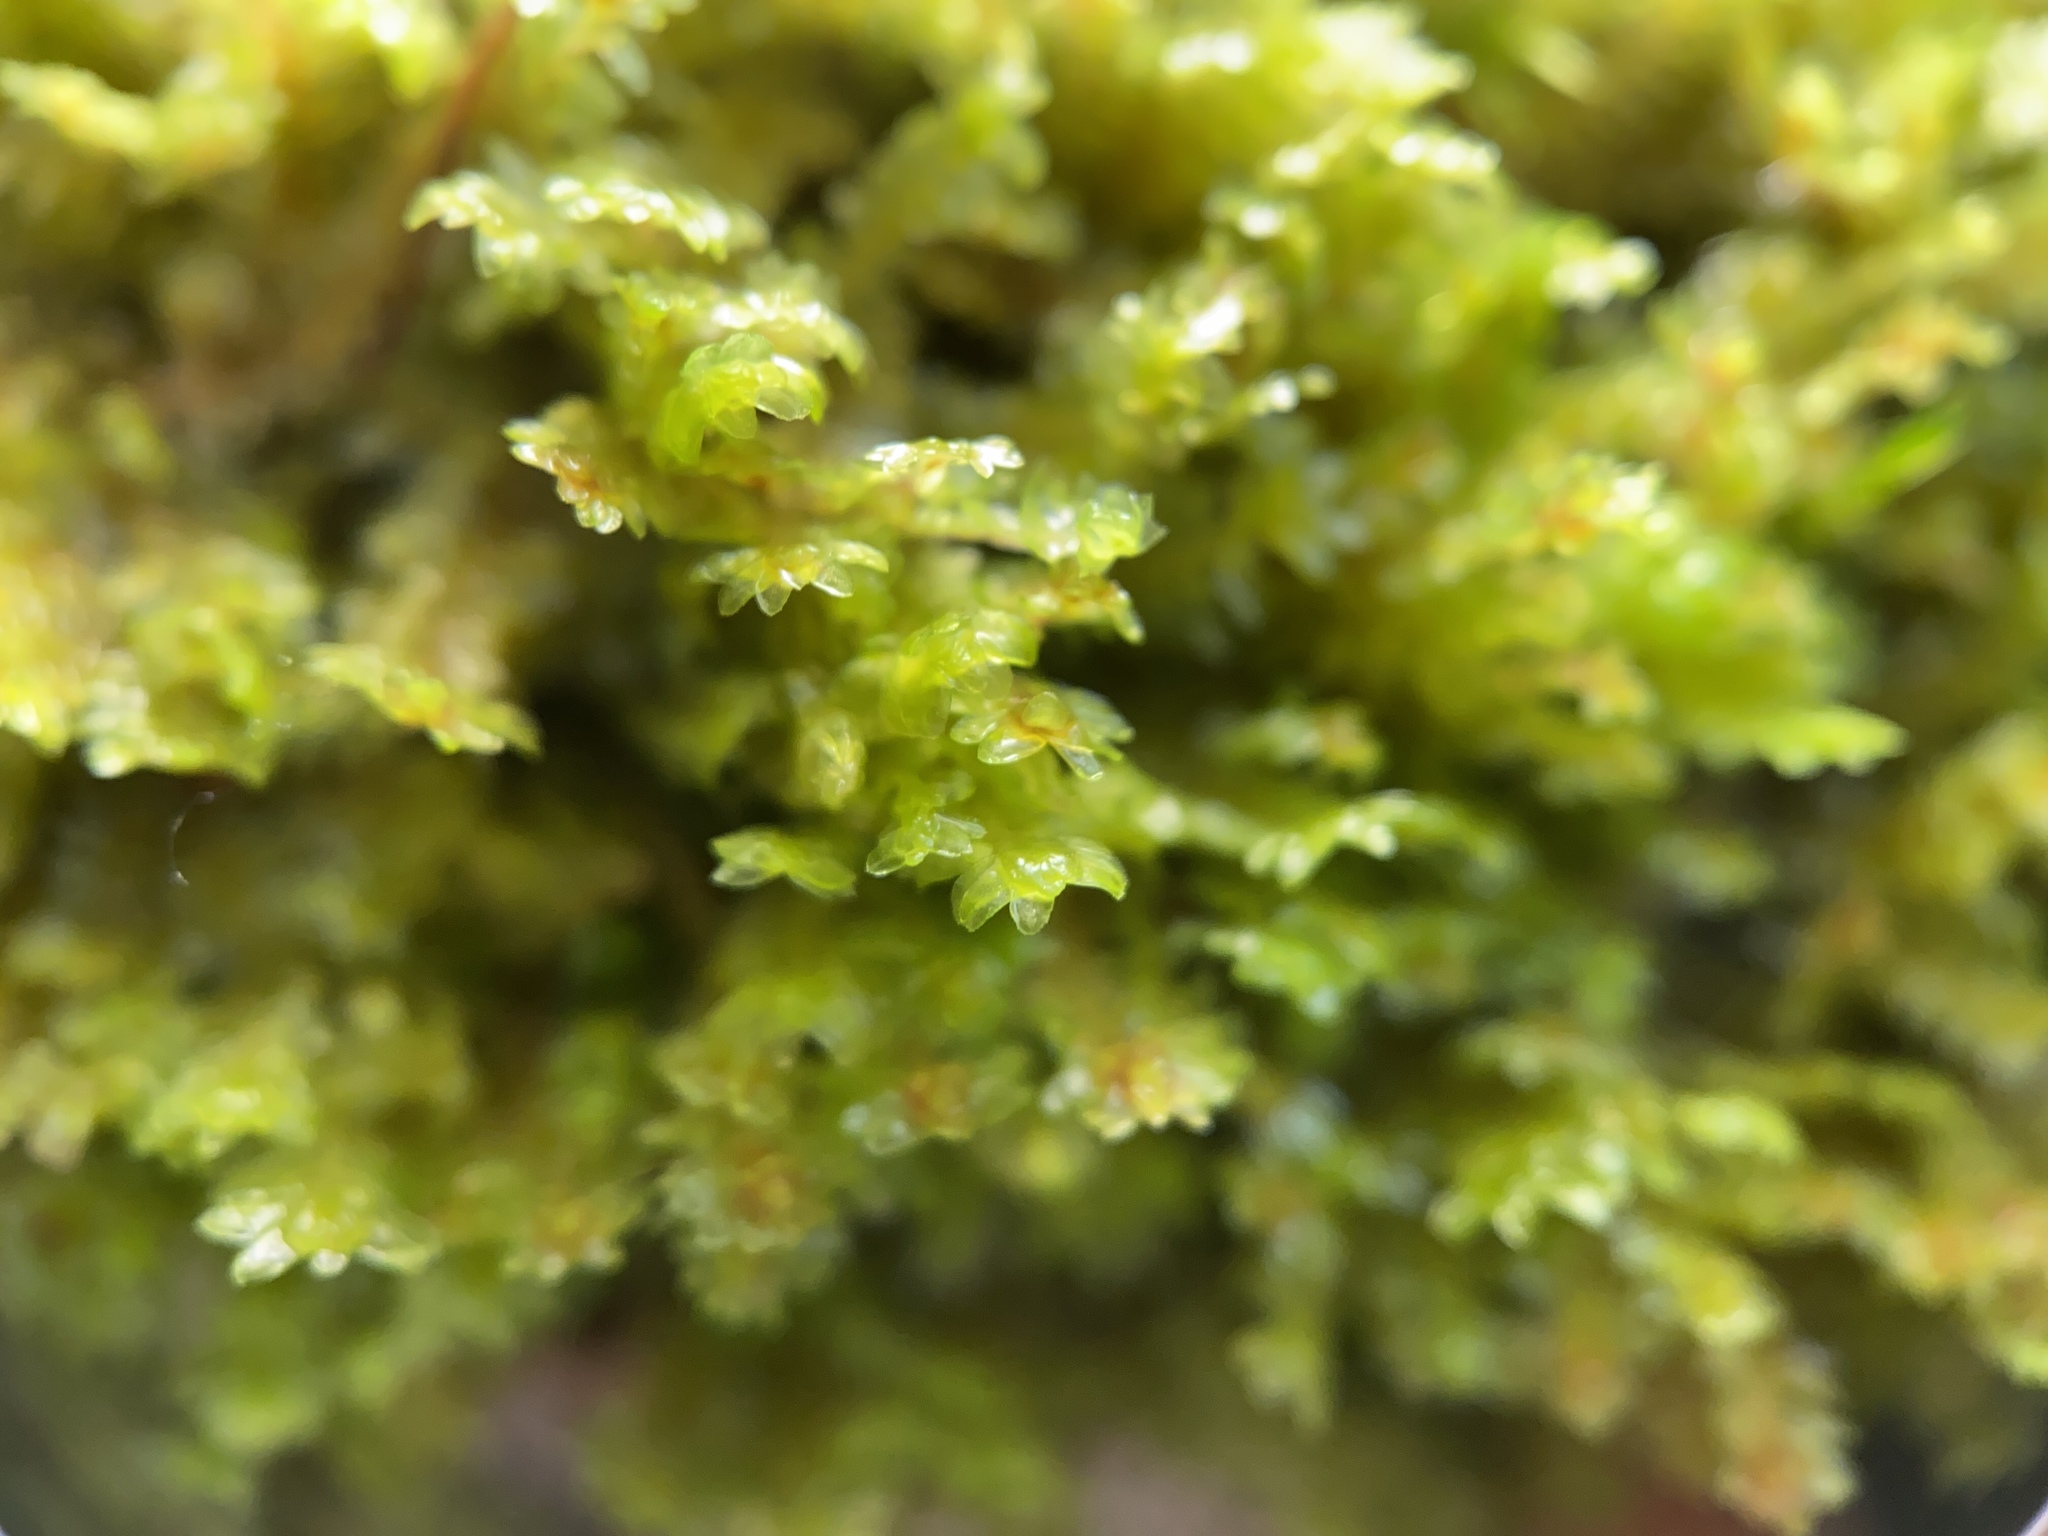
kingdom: Plantae
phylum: Marchantiophyta
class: Jungermanniopsida
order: Jungermanniales
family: Scapaniaceae
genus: Diplophyllum
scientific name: Diplophyllum albicans
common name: White earwort
